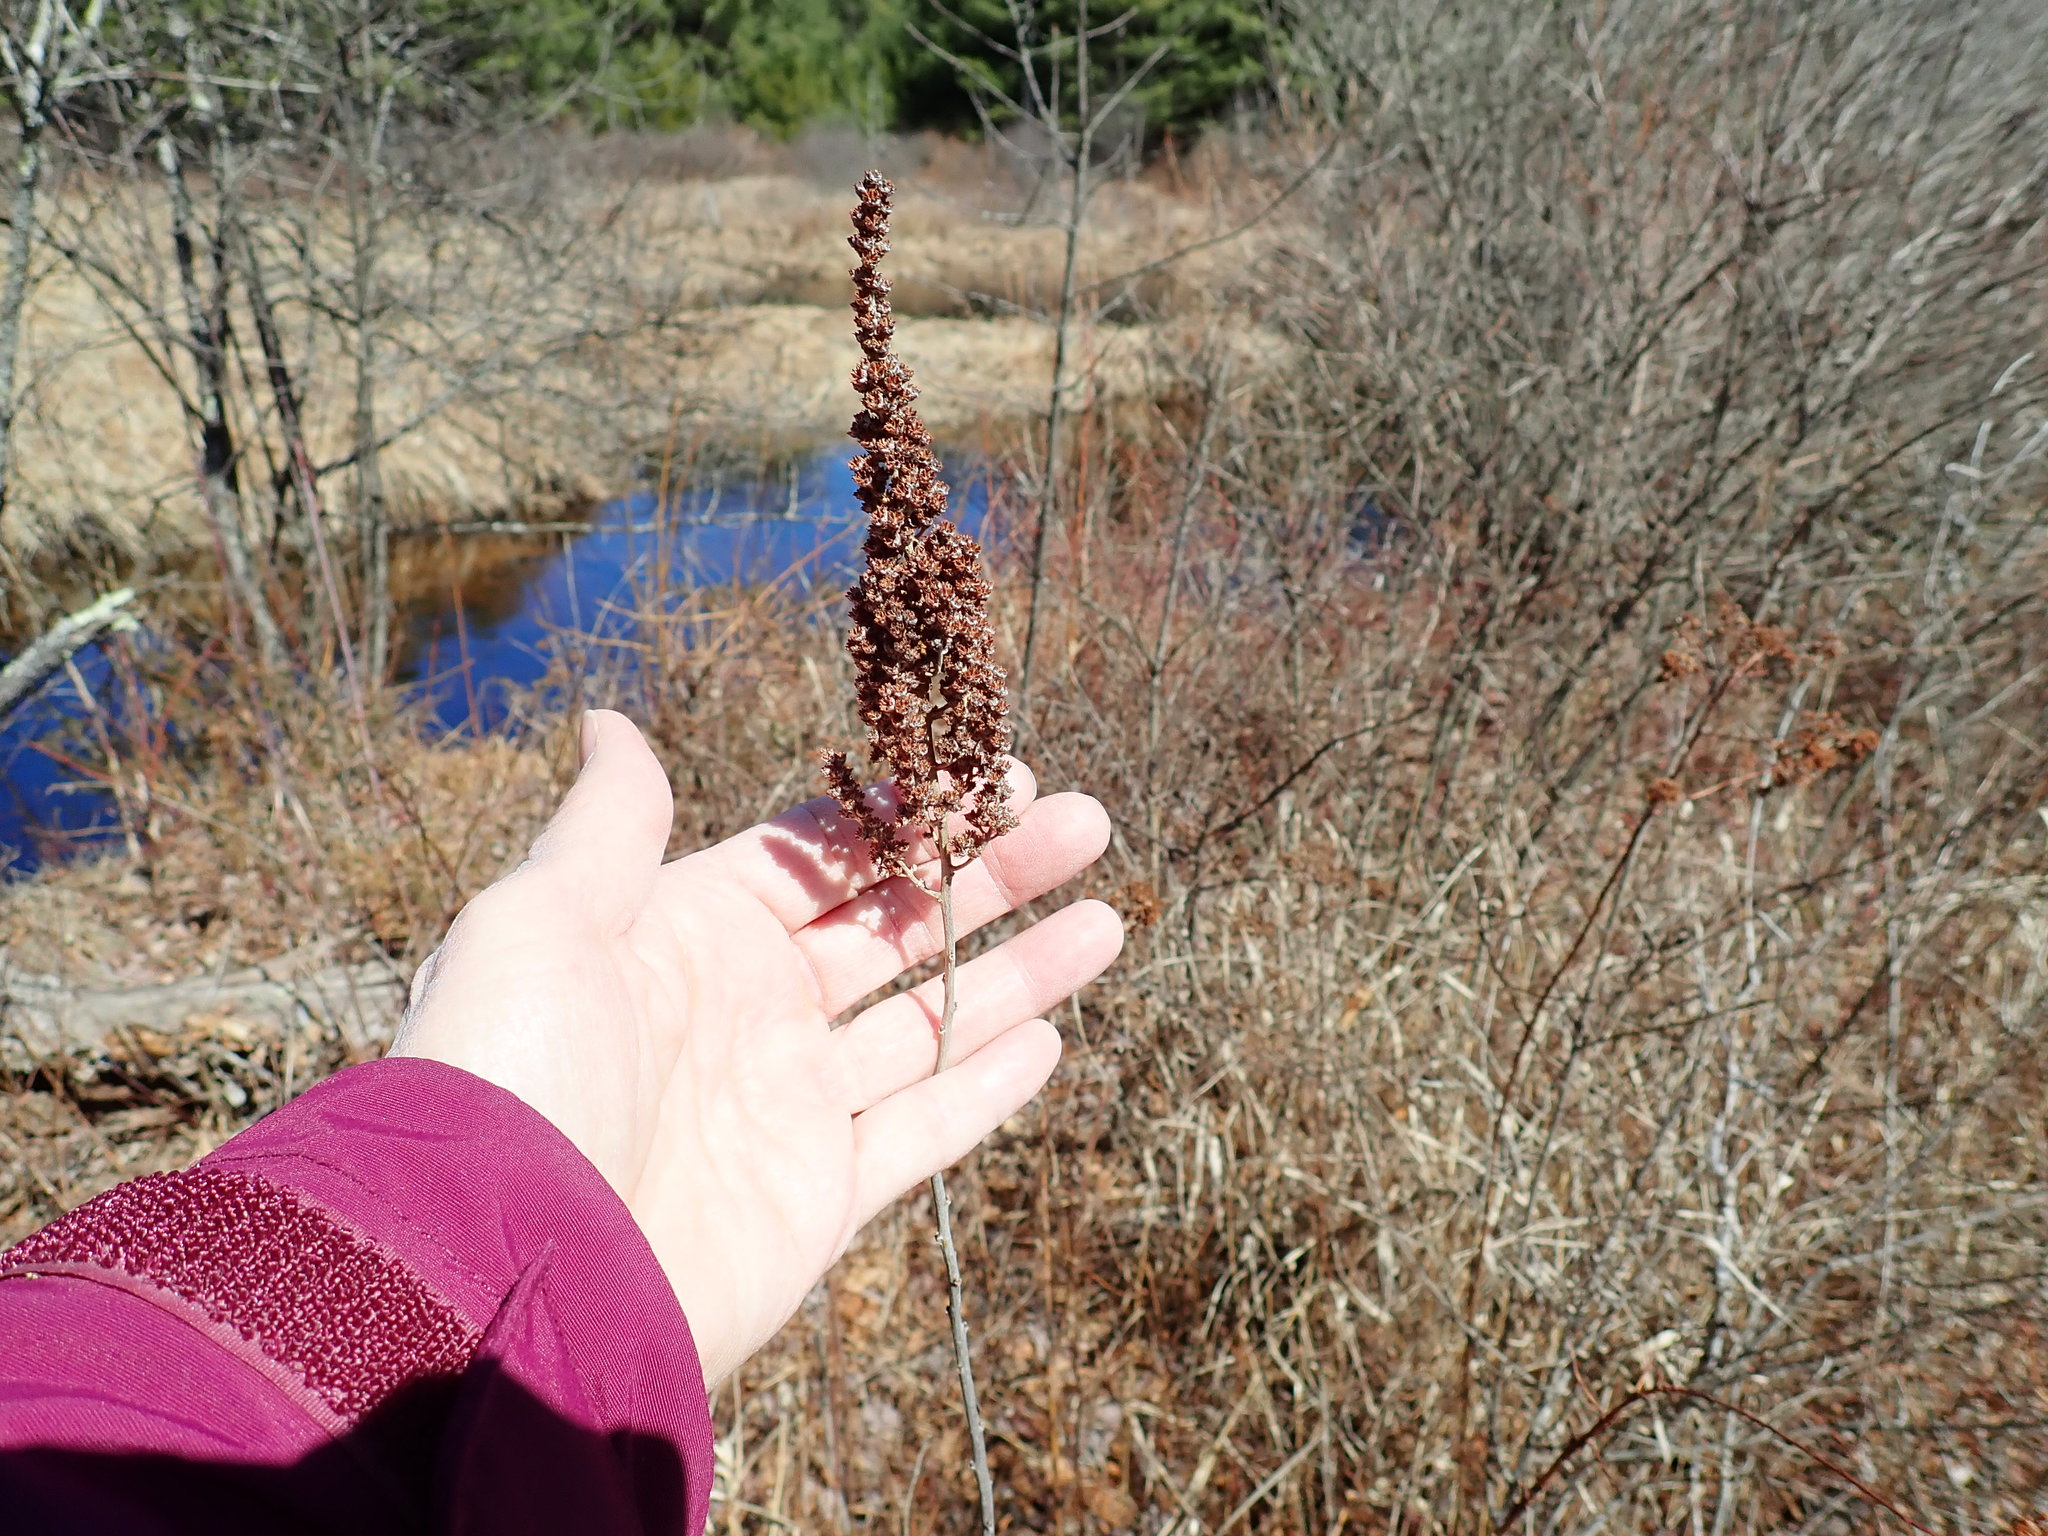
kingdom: Plantae
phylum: Tracheophyta
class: Magnoliopsida
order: Rosales
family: Rosaceae
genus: Spiraea
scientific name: Spiraea tomentosa
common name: Hardhack
